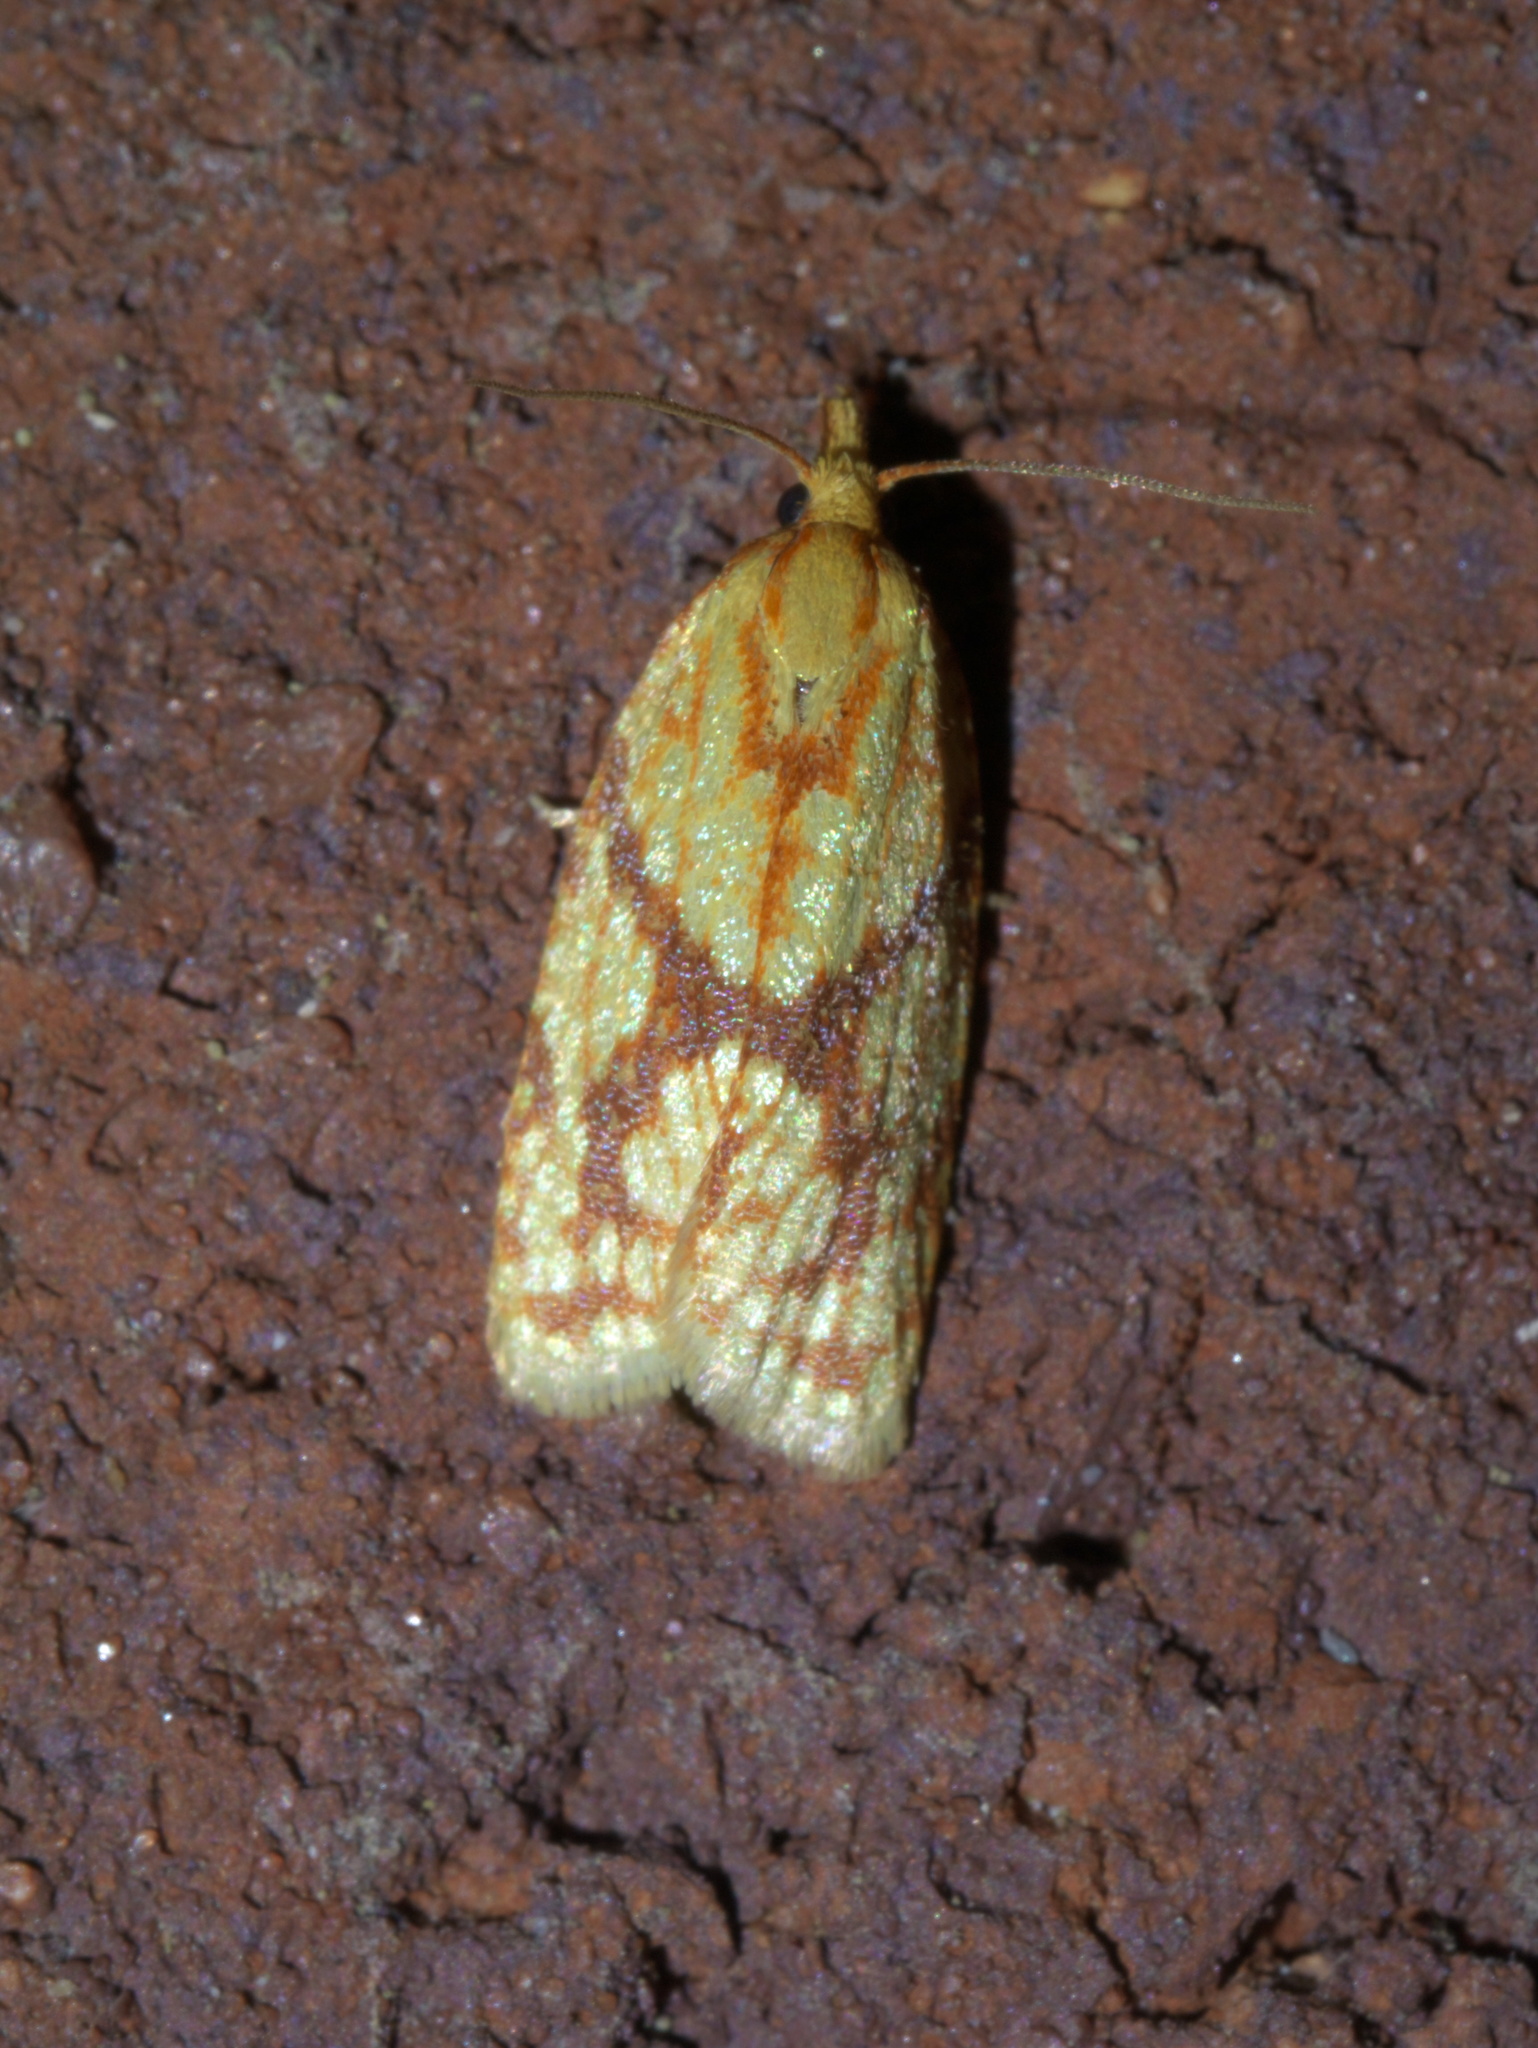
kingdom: Animalia
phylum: Arthropoda
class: Insecta
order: Lepidoptera
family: Tortricidae
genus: Sparganothis
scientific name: Sparganothis sulfureana
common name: Sparganothis fruitworm moth
